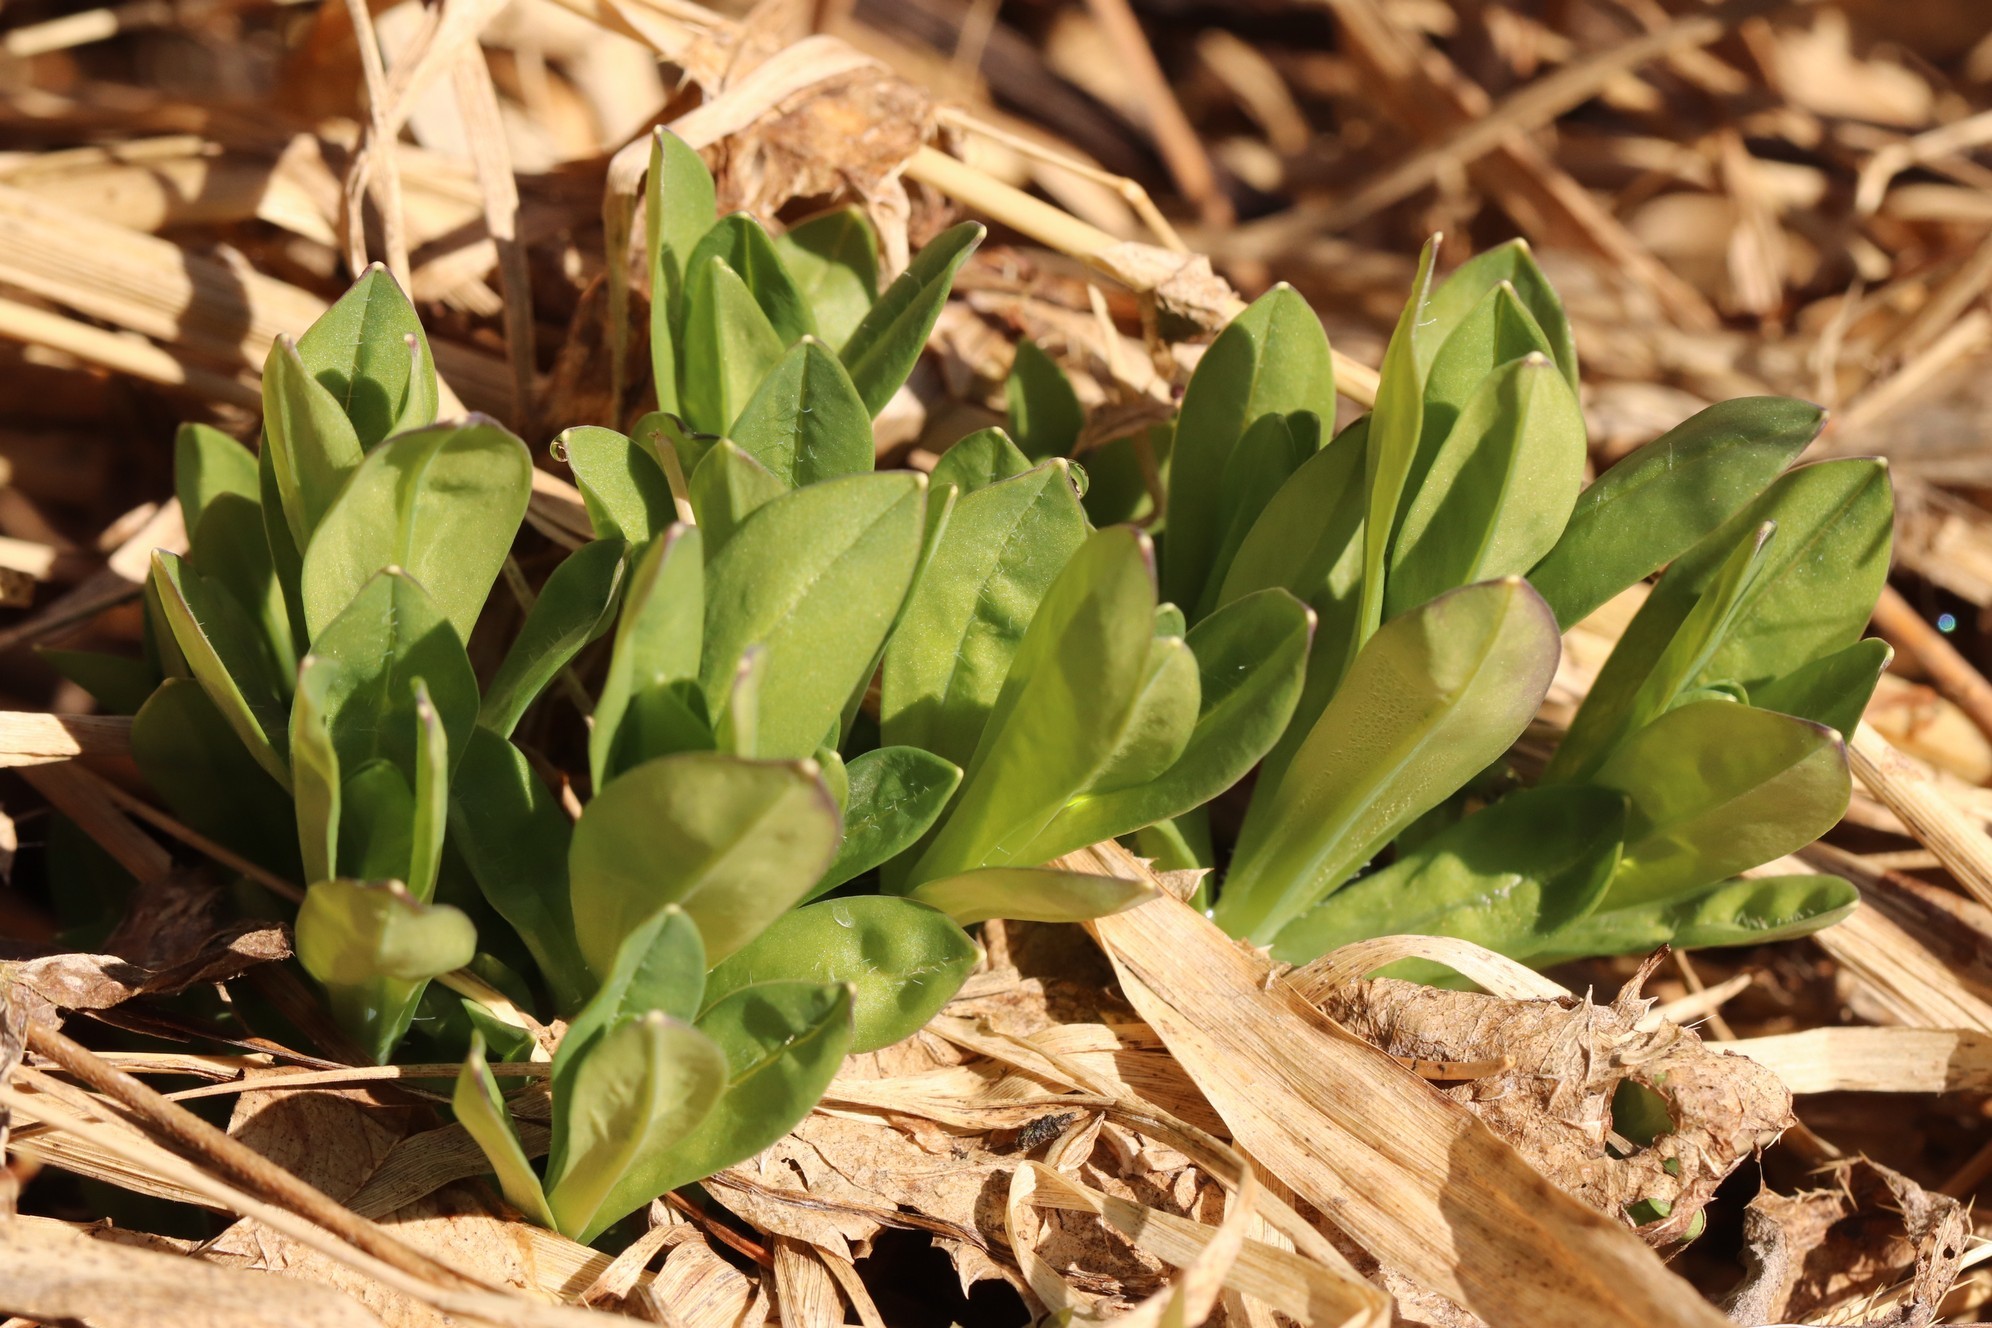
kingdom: Plantae
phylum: Tracheophyta
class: Magnoliopsida
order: Caryophyllales
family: Caryophyllaceae
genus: Silene
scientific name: Silene vulgaris
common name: Bladder campion
